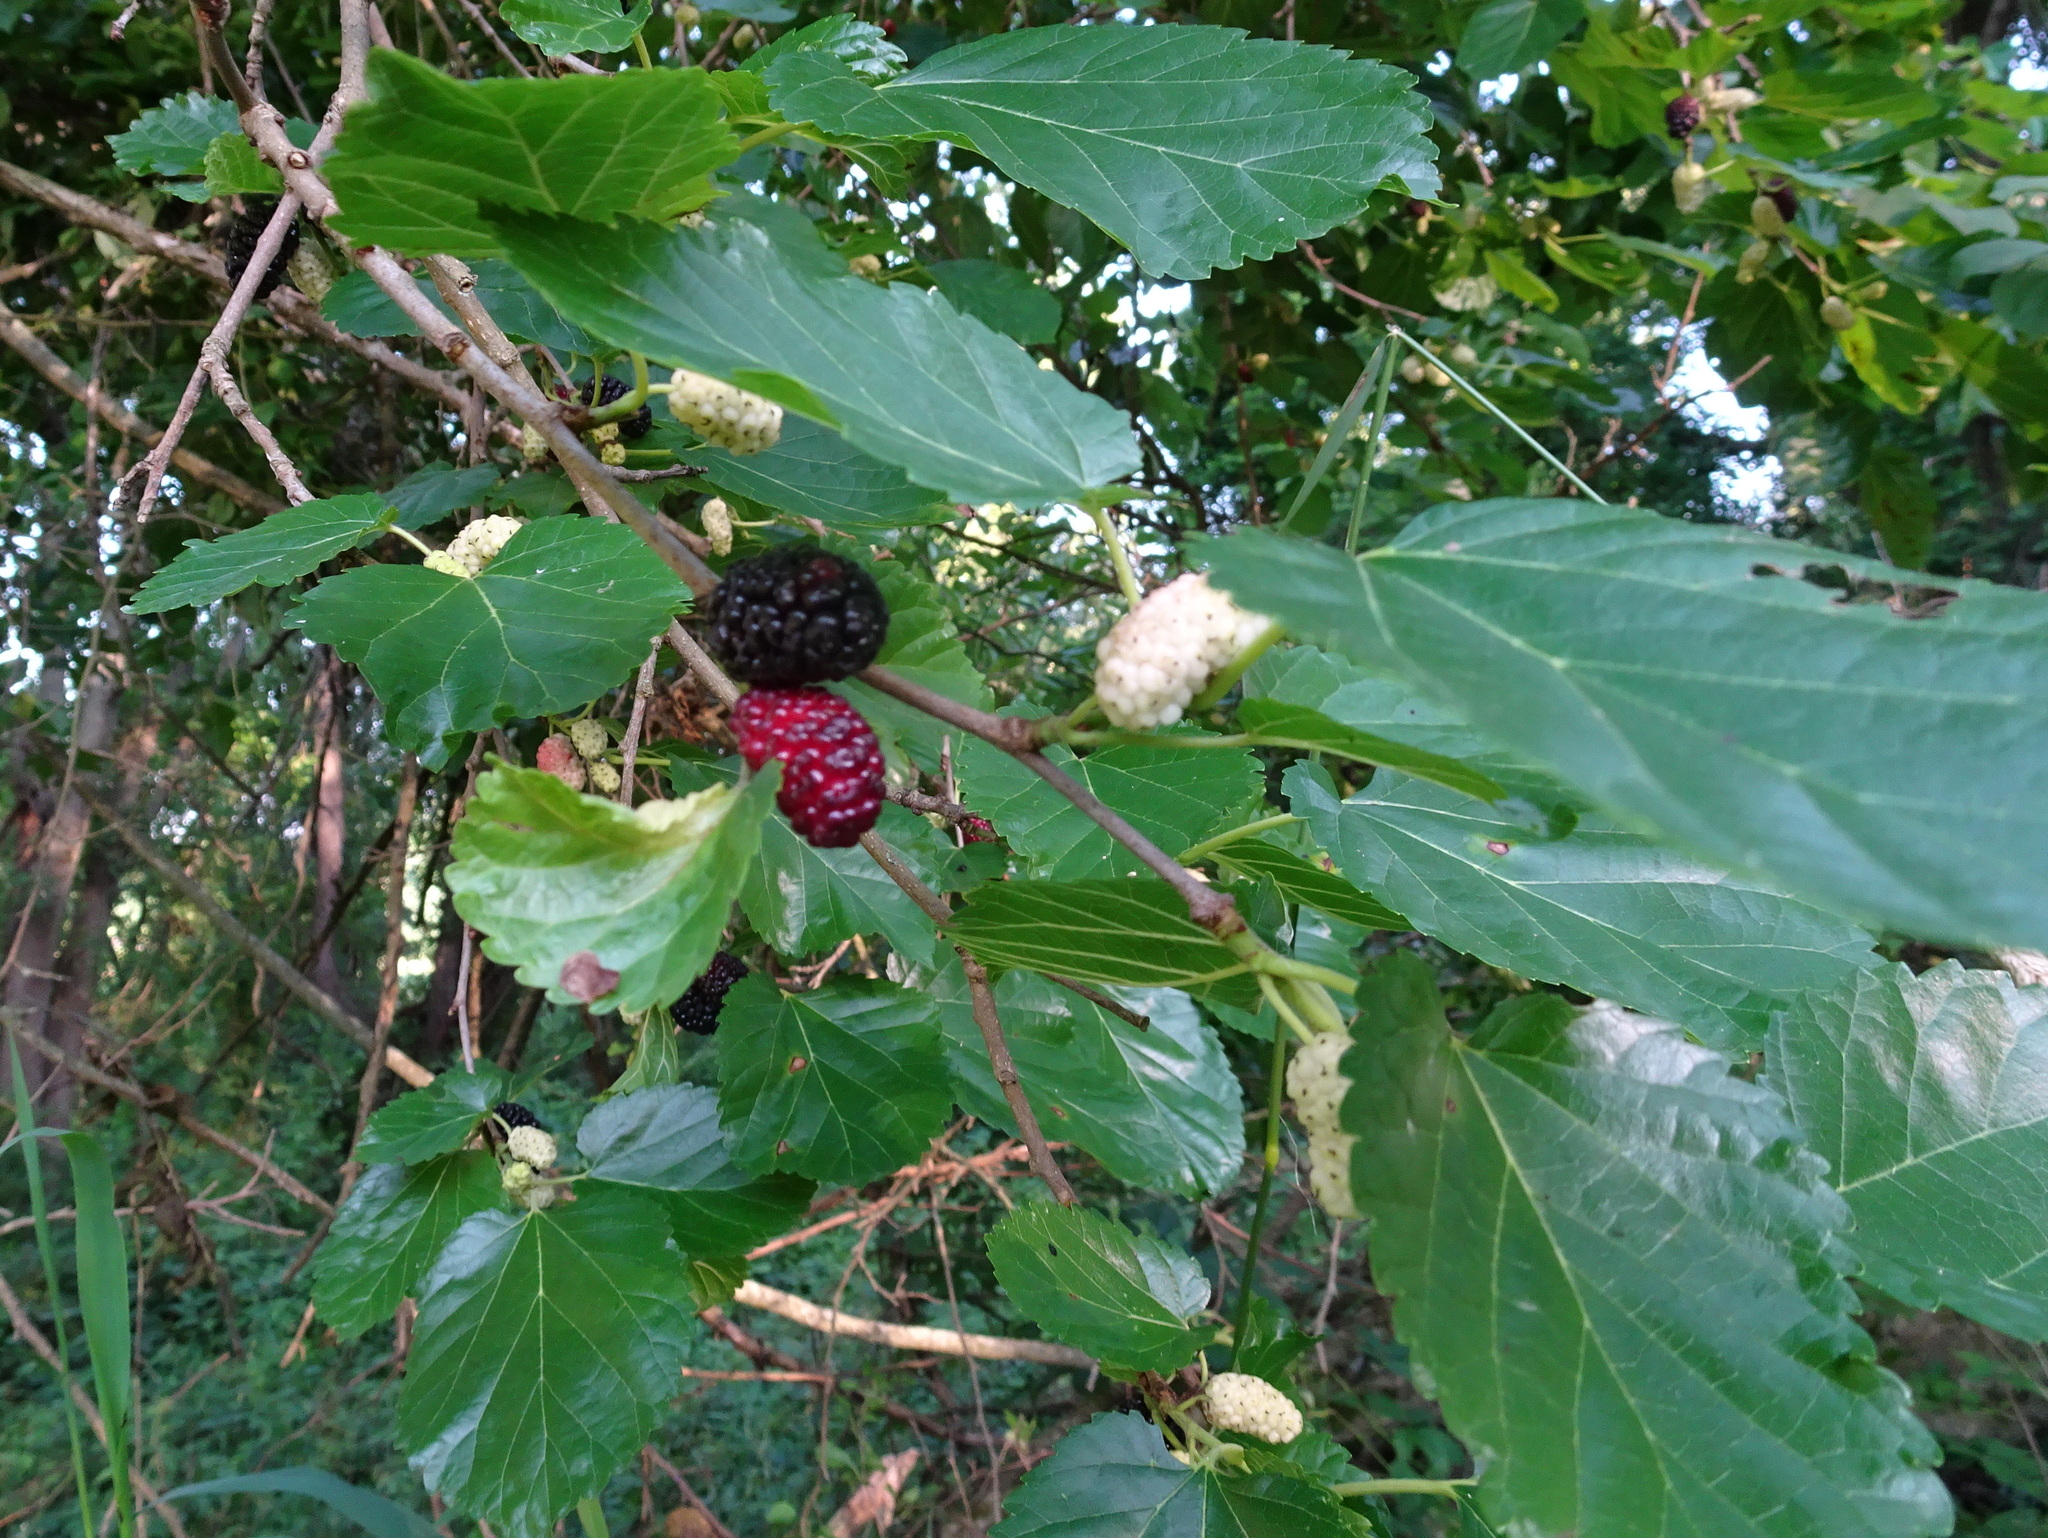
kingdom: Plantae
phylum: Tracheophyta
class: Magnoliopsida
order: Rosales
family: Moraceae
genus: Morus
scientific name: Morus alba
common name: White mulberry
